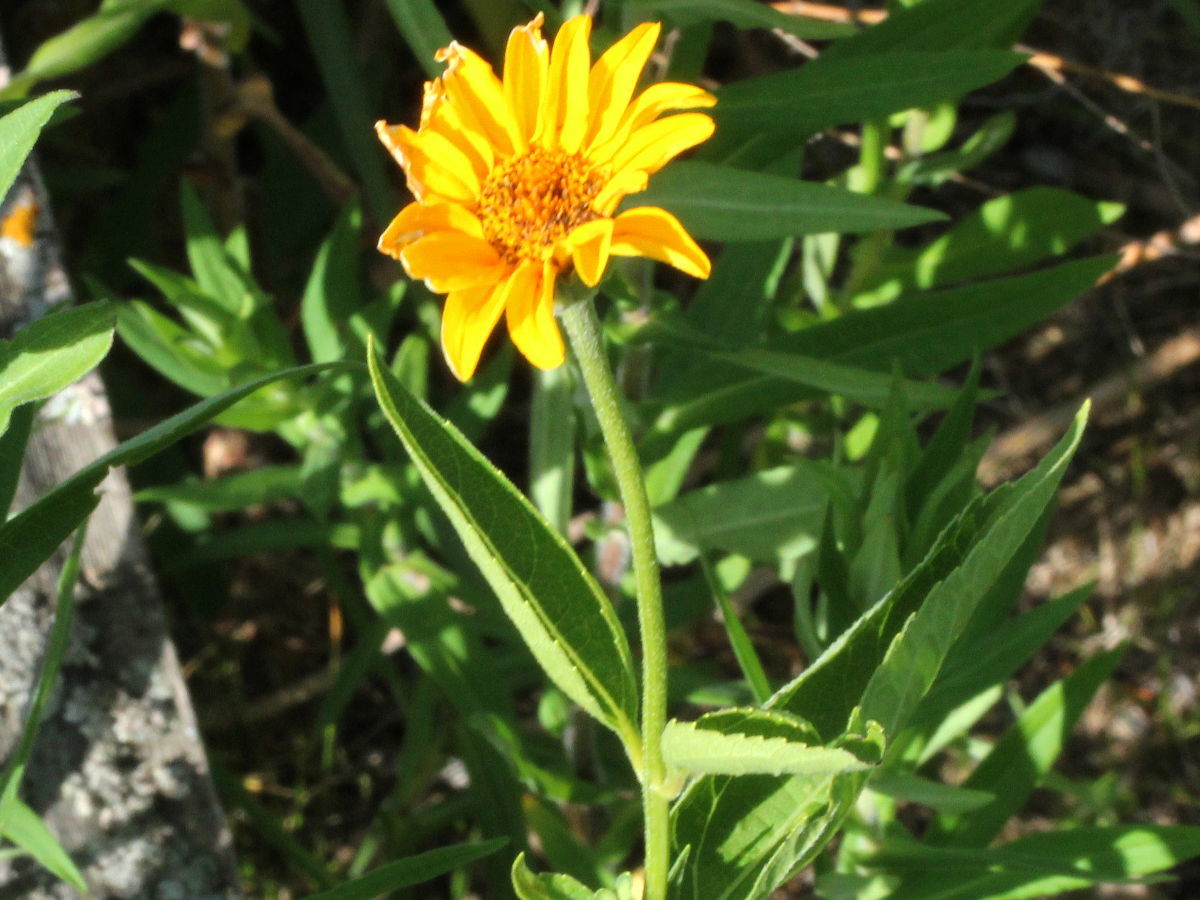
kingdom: Plantae
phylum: Tracheophyta
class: Magnoliopsida
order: Asterales
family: Asteraceae
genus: Heliopsis
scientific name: Heliopsis helianthoides
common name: False sunflower
